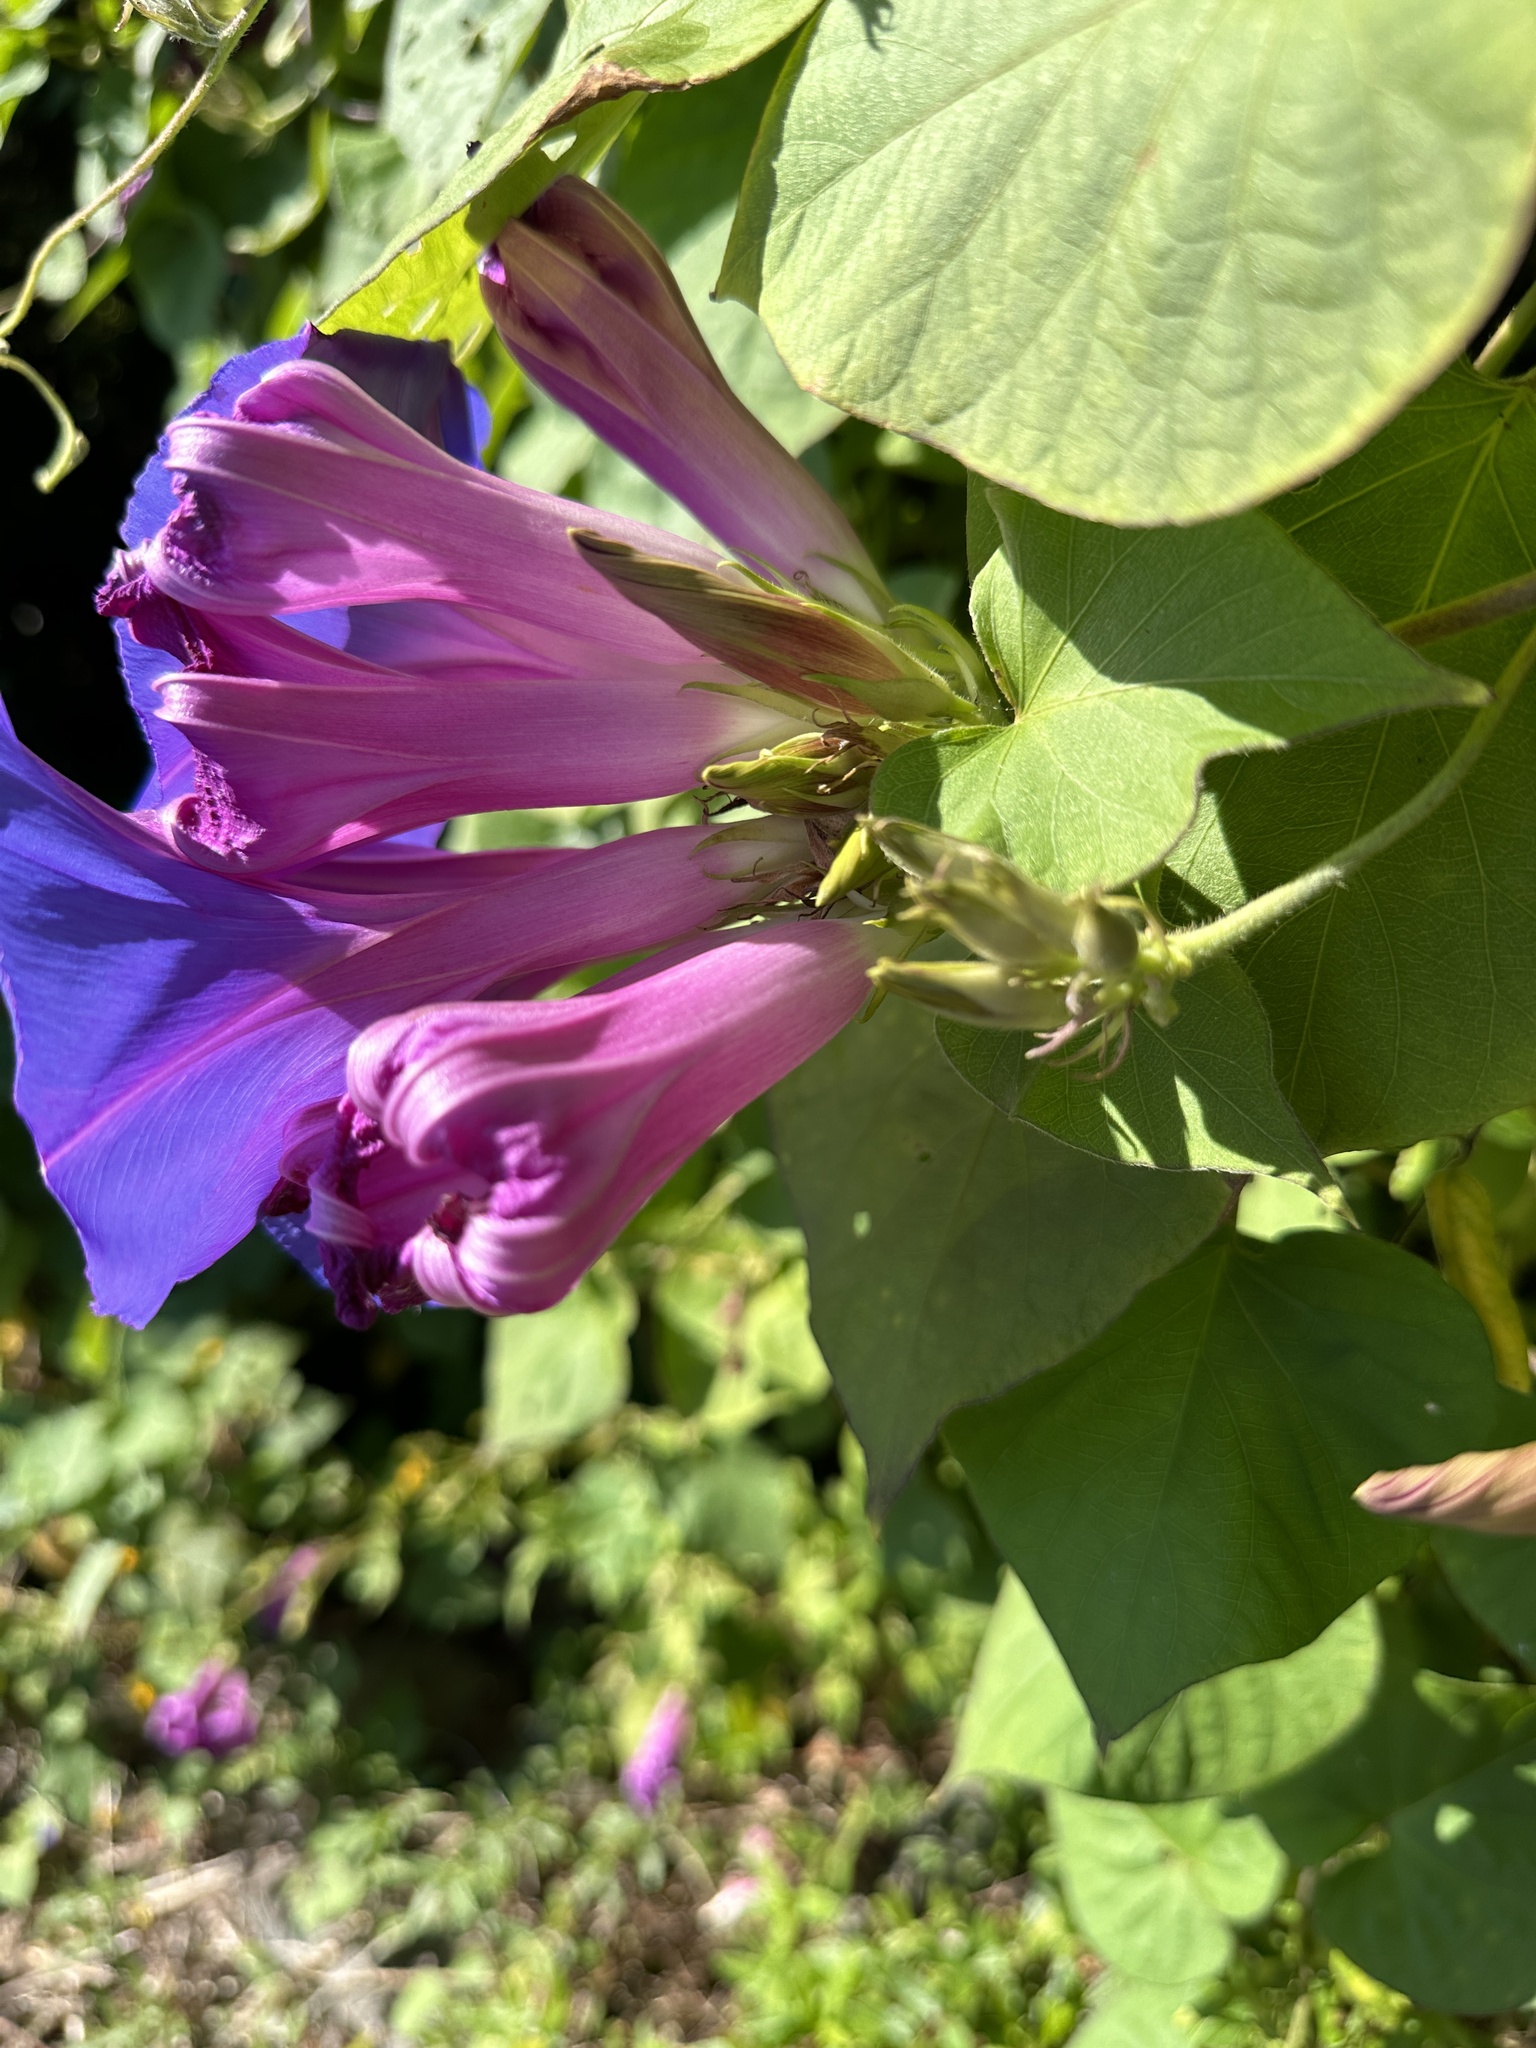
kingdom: Plantae
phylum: Tracheophyta
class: Magnoliopsida
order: Solanales
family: Convolvulaceae
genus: Ipomoea
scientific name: Ipomoea indica
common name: Blue dawnflower
